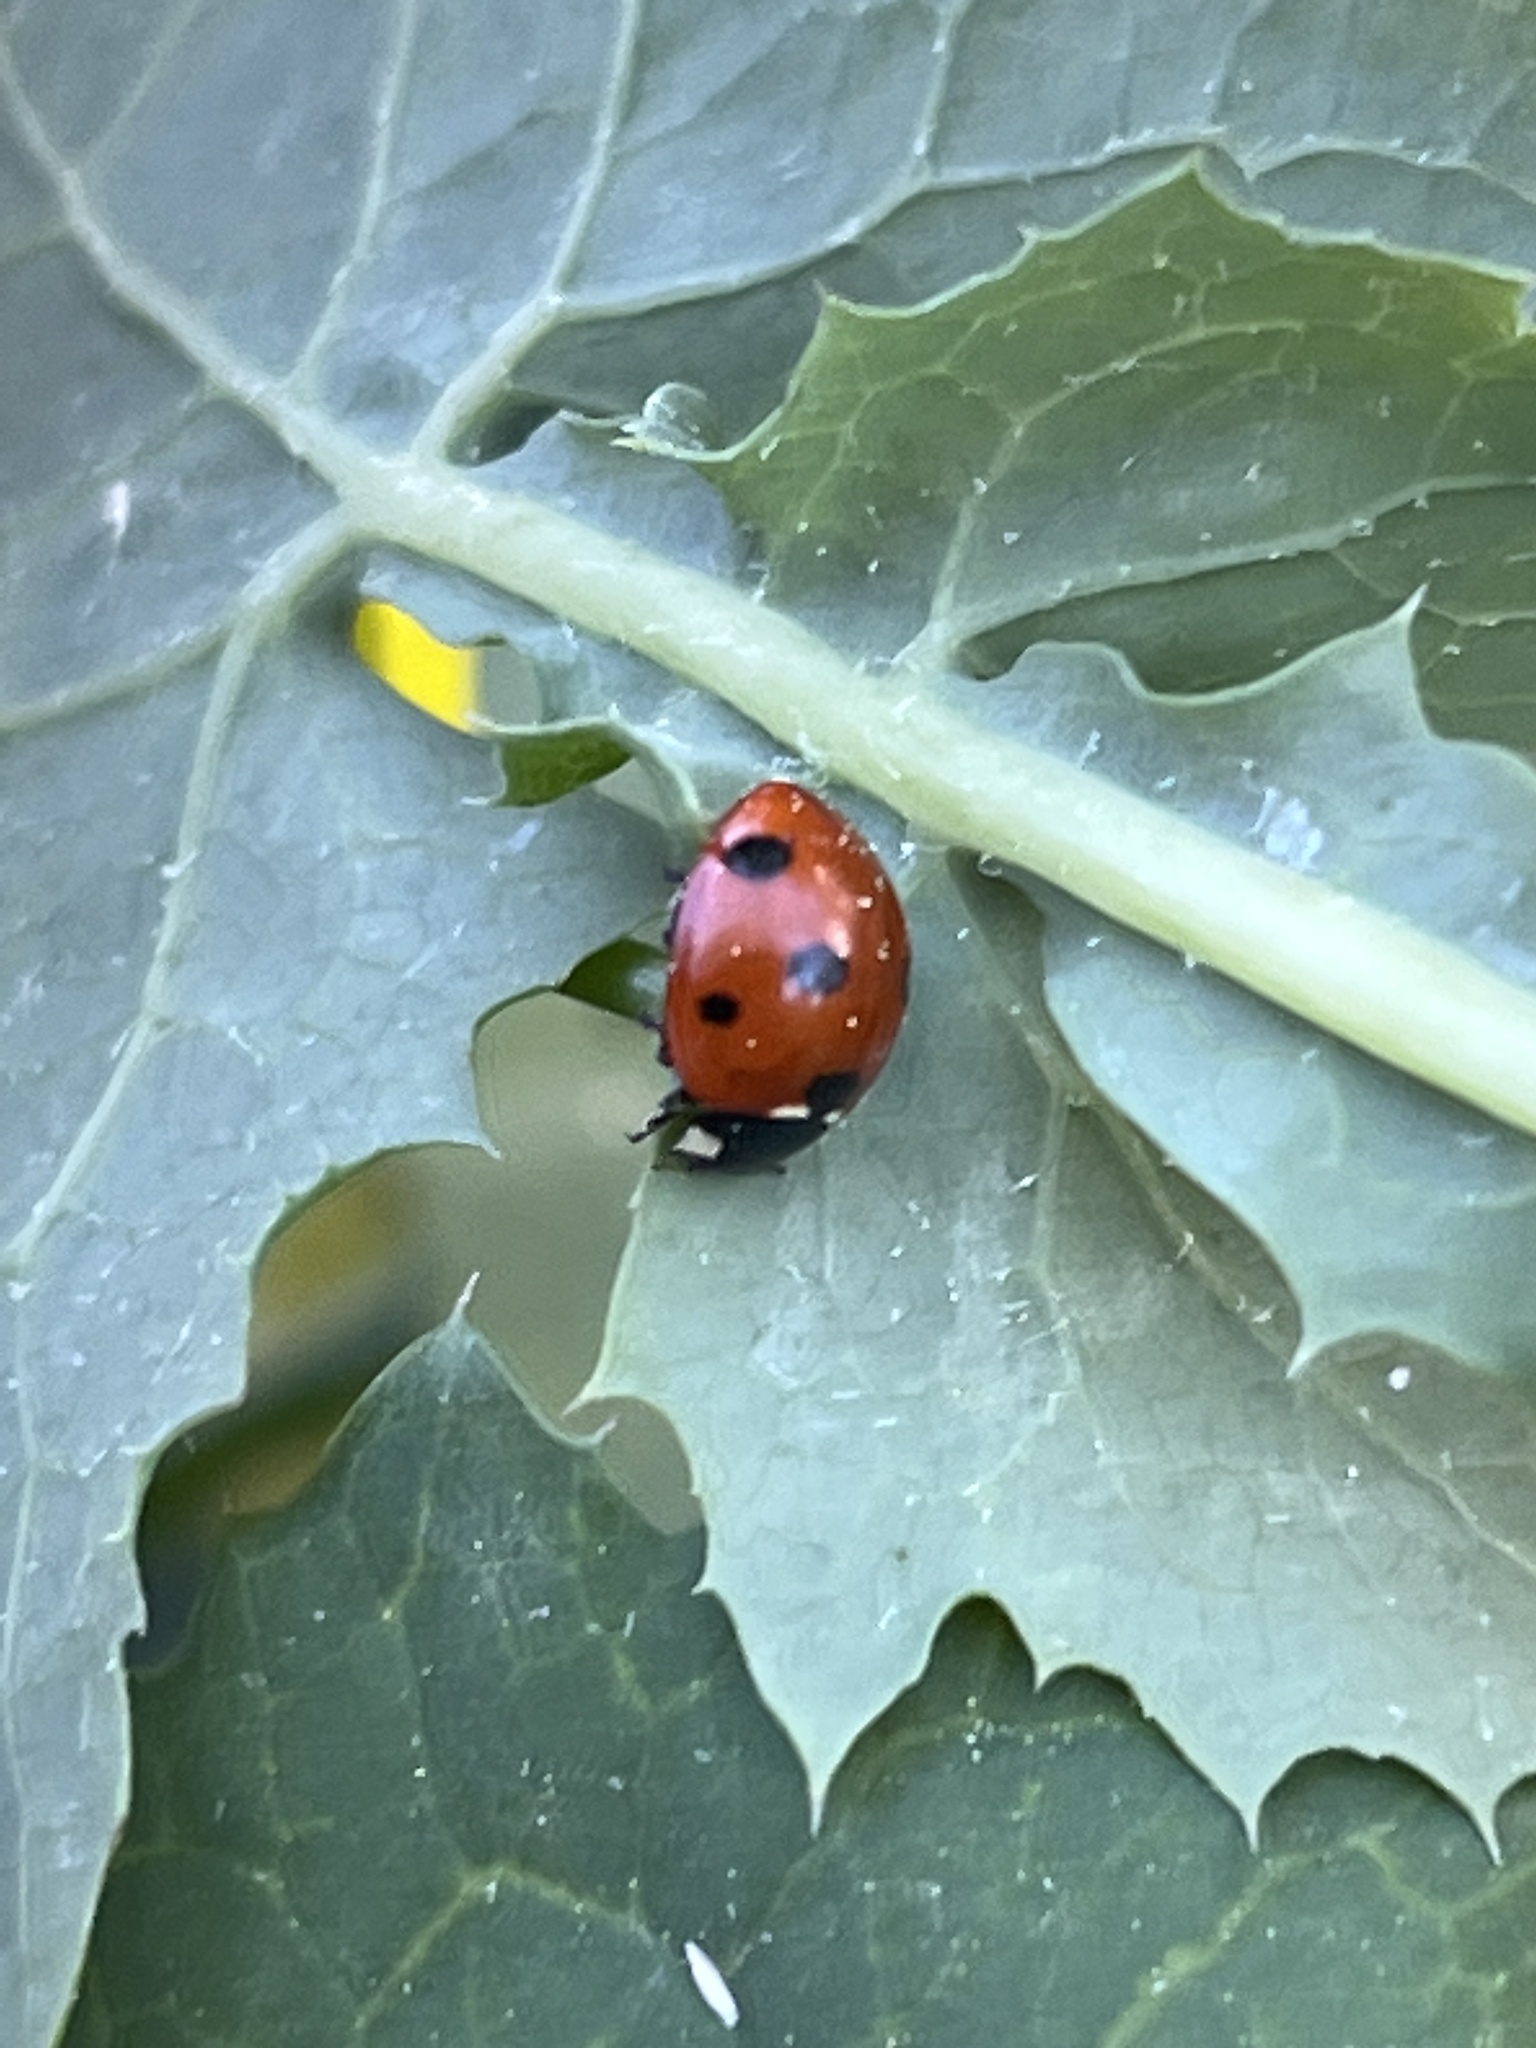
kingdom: Animalia
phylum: Arthropoda
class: Insecta
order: Coleoptera
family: Coccinellidae
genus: Coccinella
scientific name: Coccinella septempunctata
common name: Sevenspotted lady beetle
